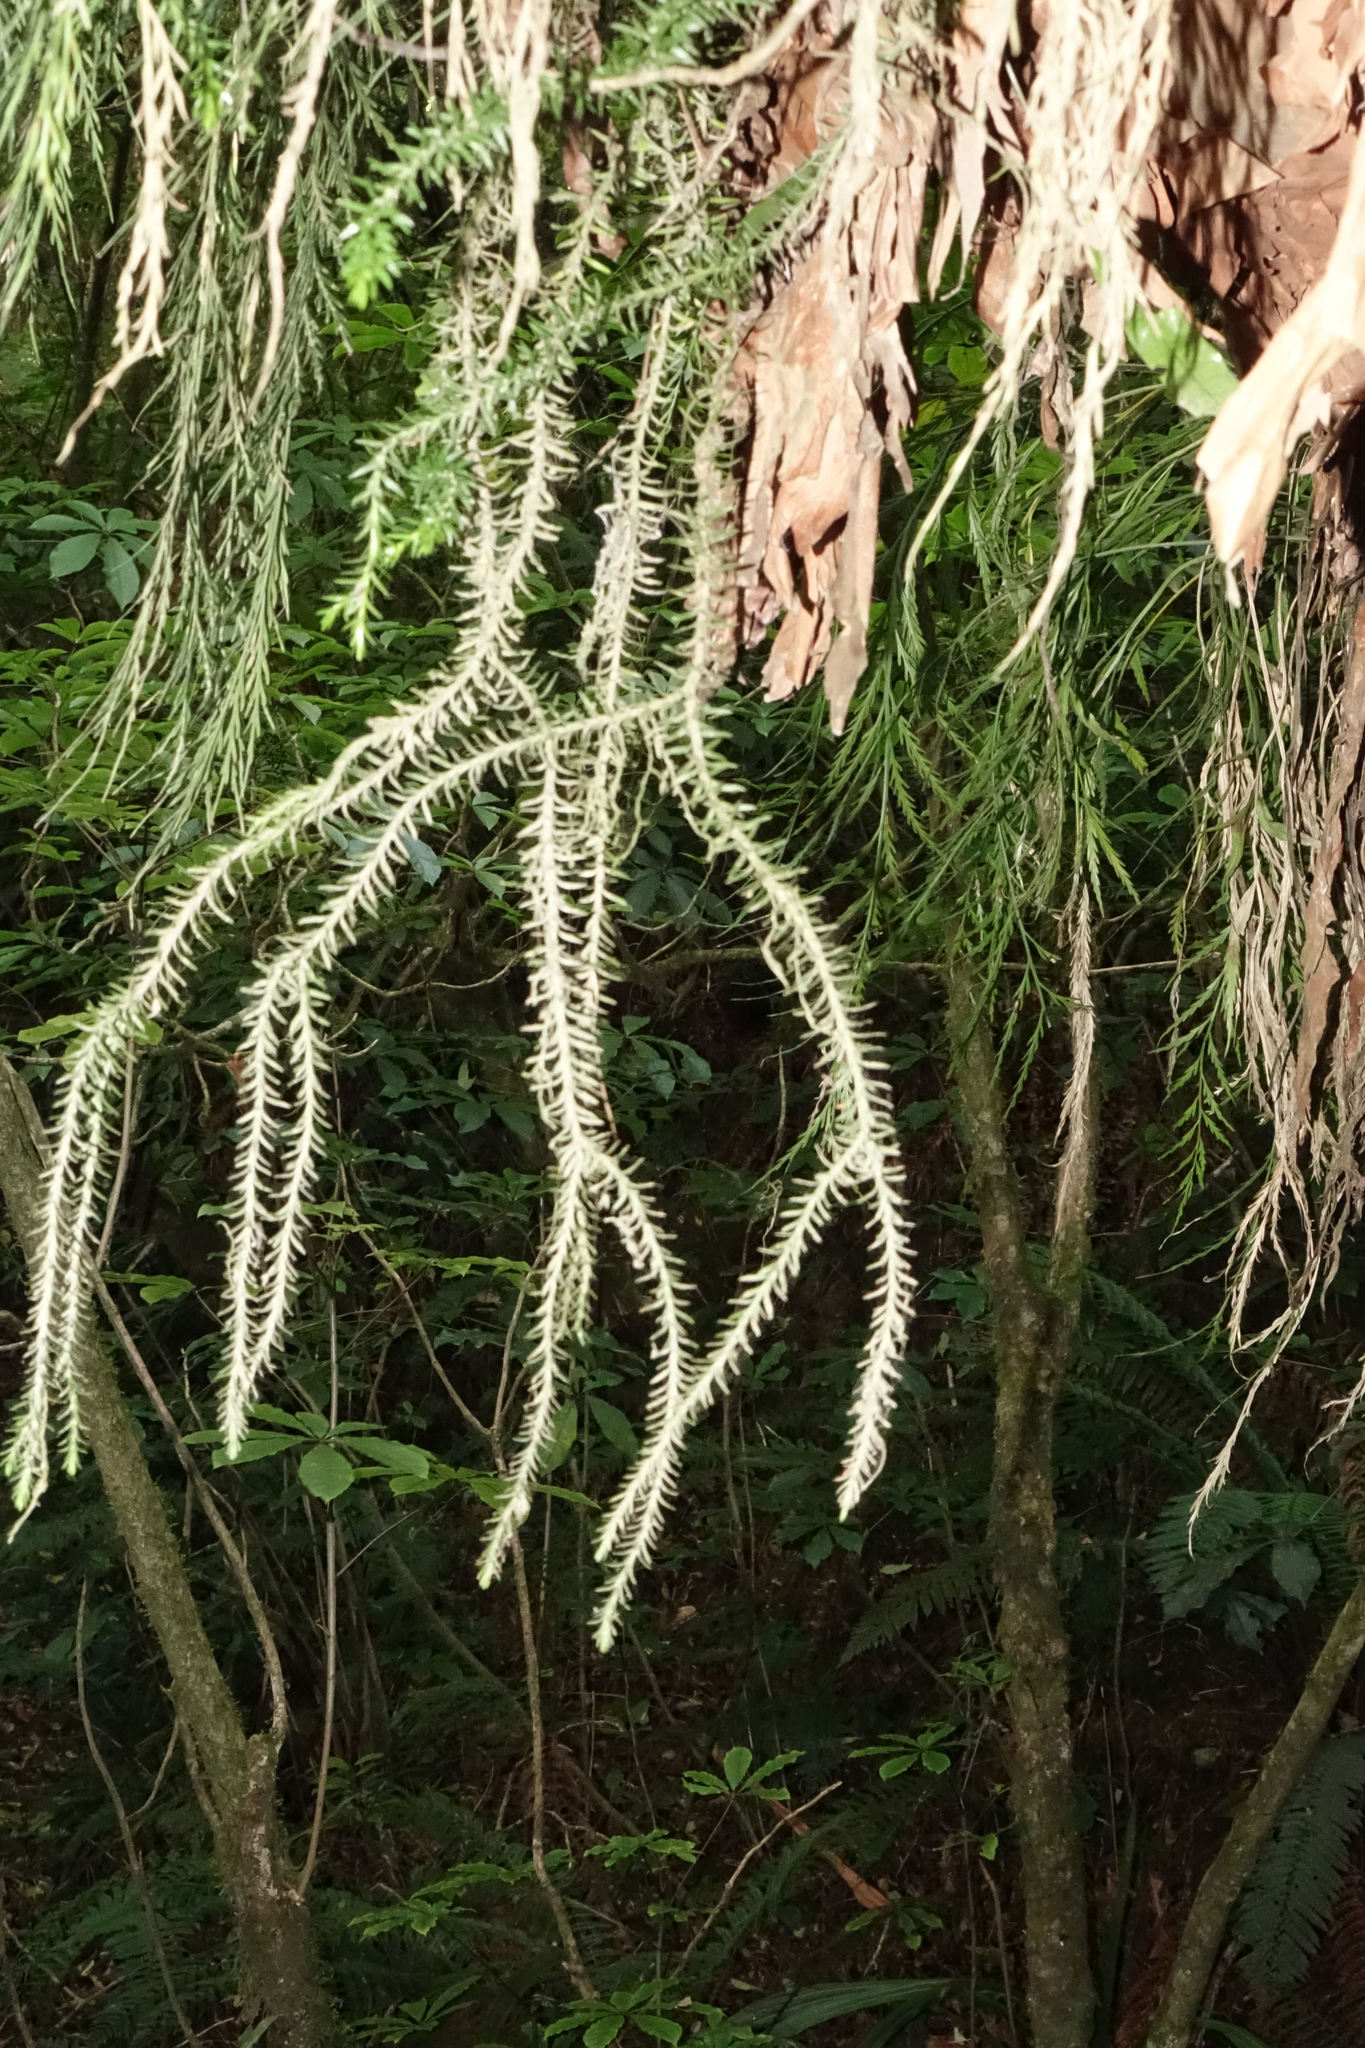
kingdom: Plantae
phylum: Tracheophyta
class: Lycopodiopsida
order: Lycopodiales
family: Lycopodiaceae
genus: Phlegmariurus
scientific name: Phlegmariurus varius
